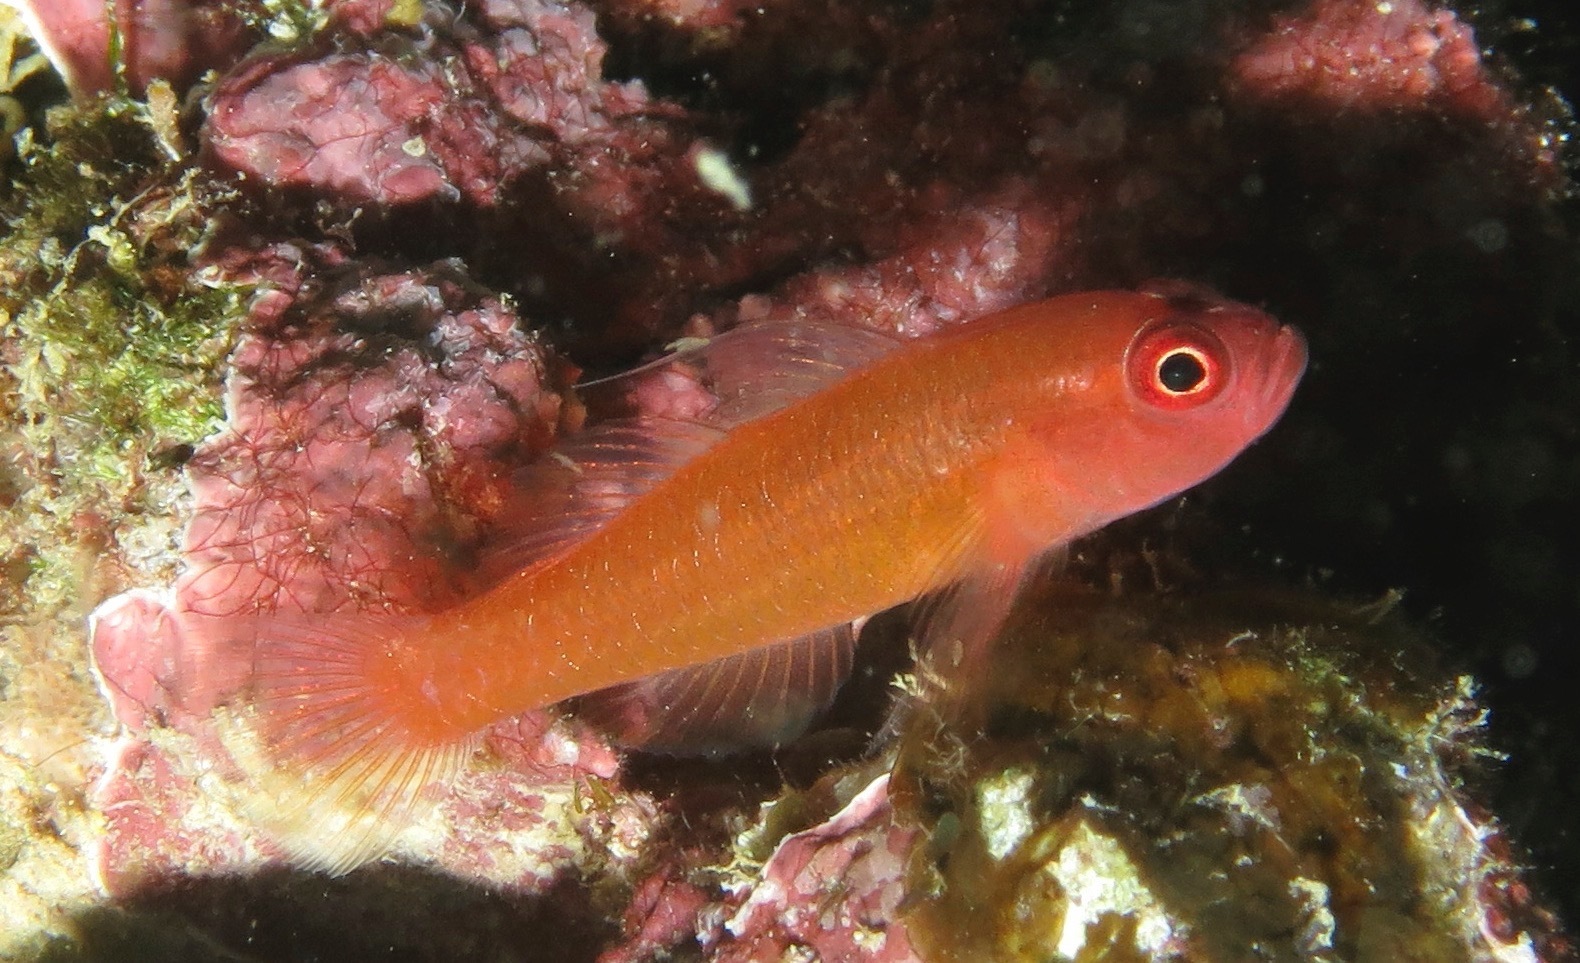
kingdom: Animalia
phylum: Chordata
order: Perciformes
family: Gobiidae
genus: Trimma
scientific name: Trimma benjamini
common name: Redface dwarfgoby
